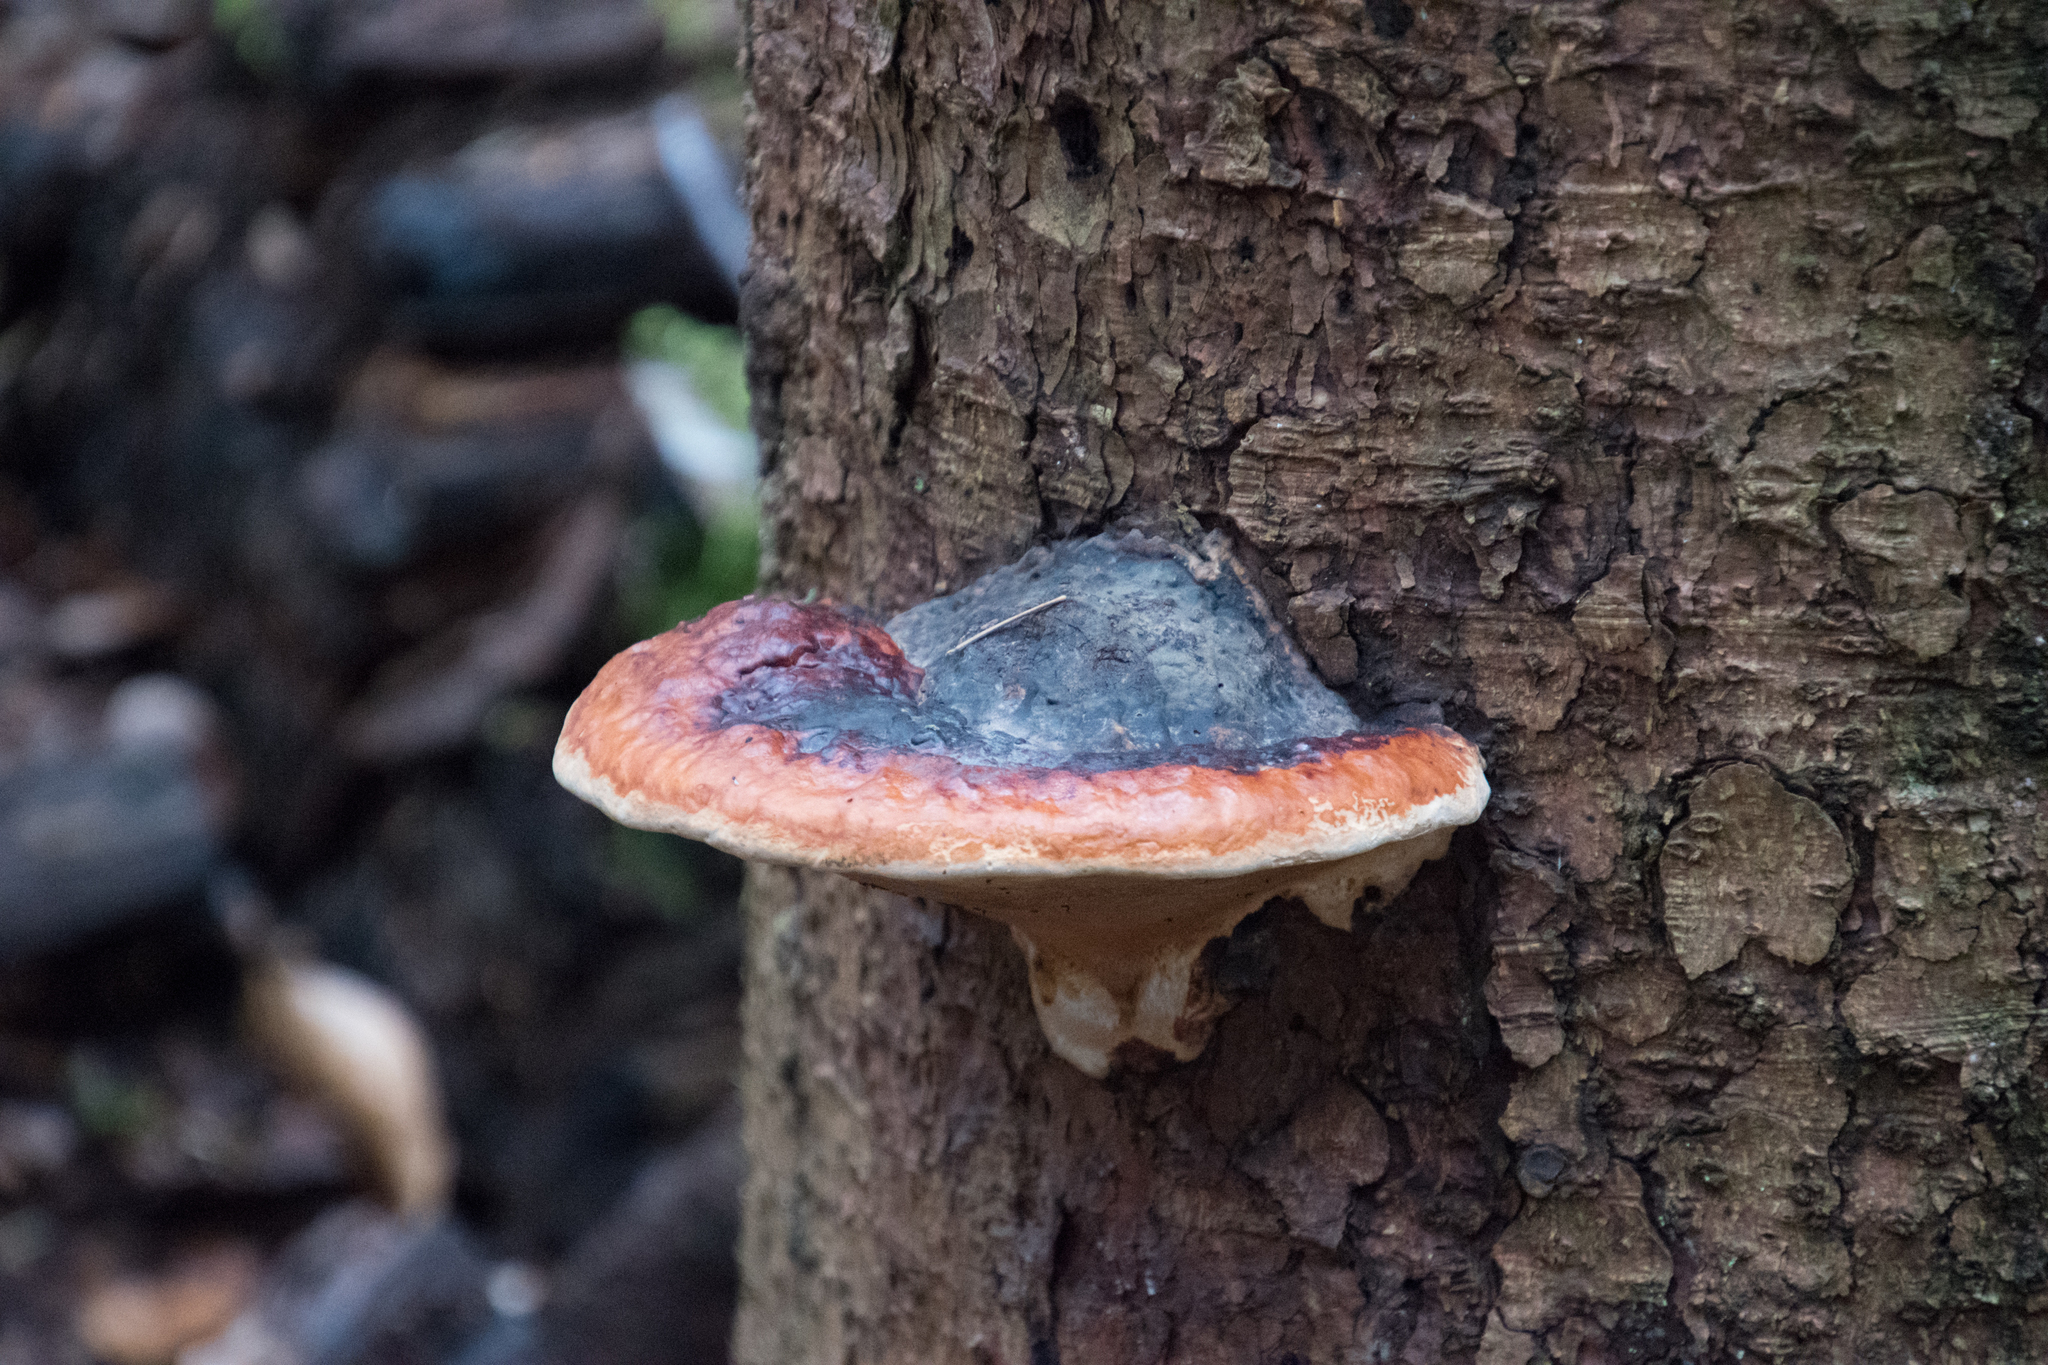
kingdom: Fungi
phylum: Basidiomycota
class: Agaricomycetes
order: Polyporales
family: Fomitopsidaceae
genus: Fomitopsis
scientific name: Fomitopsis pinicola
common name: Red-belted bracket
